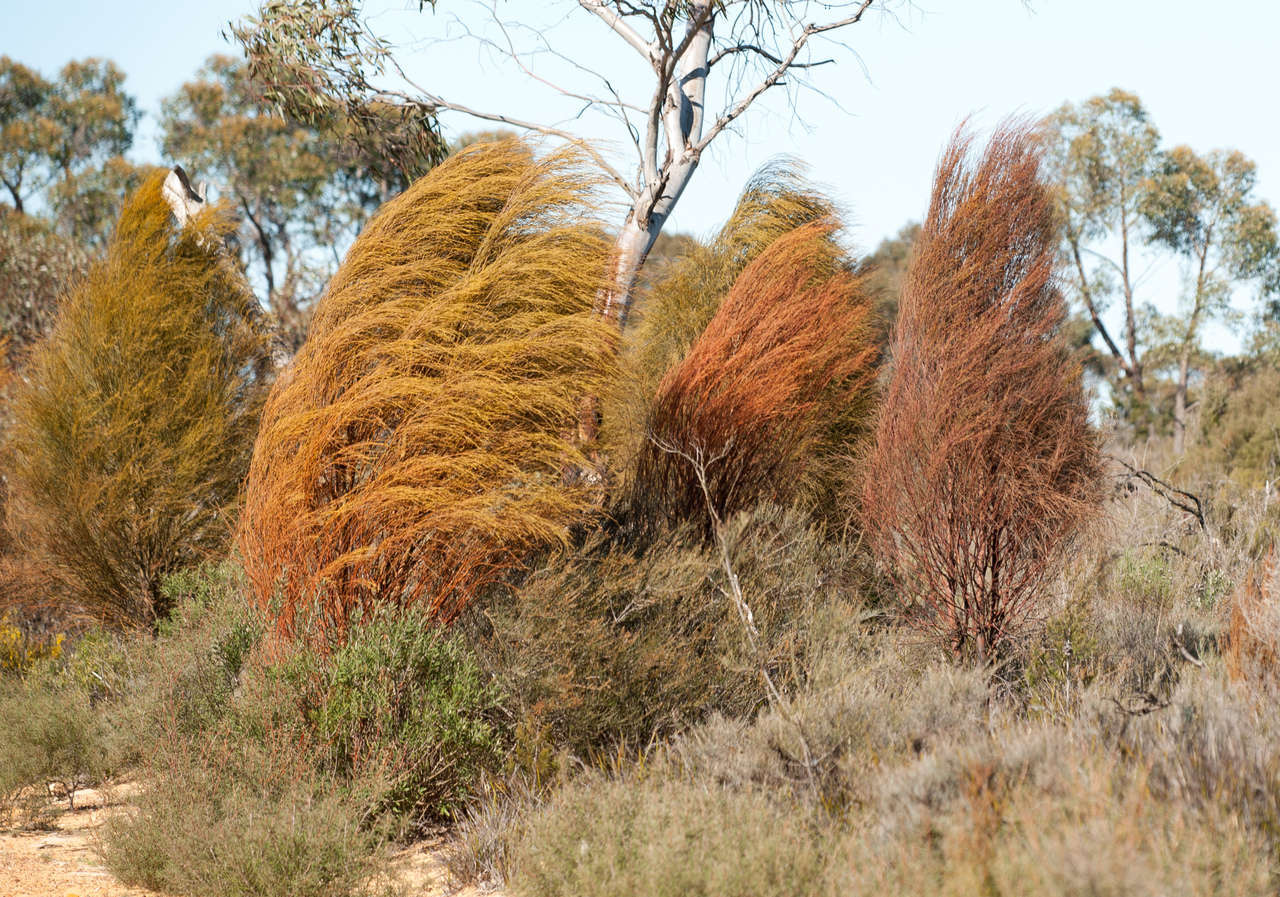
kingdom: Plantae
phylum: Tracheophyta
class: Magnoliopsida
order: Santalales
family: Santalaceae
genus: Exocarpos
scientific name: Exocarpos sparteus
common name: Broom ballart
